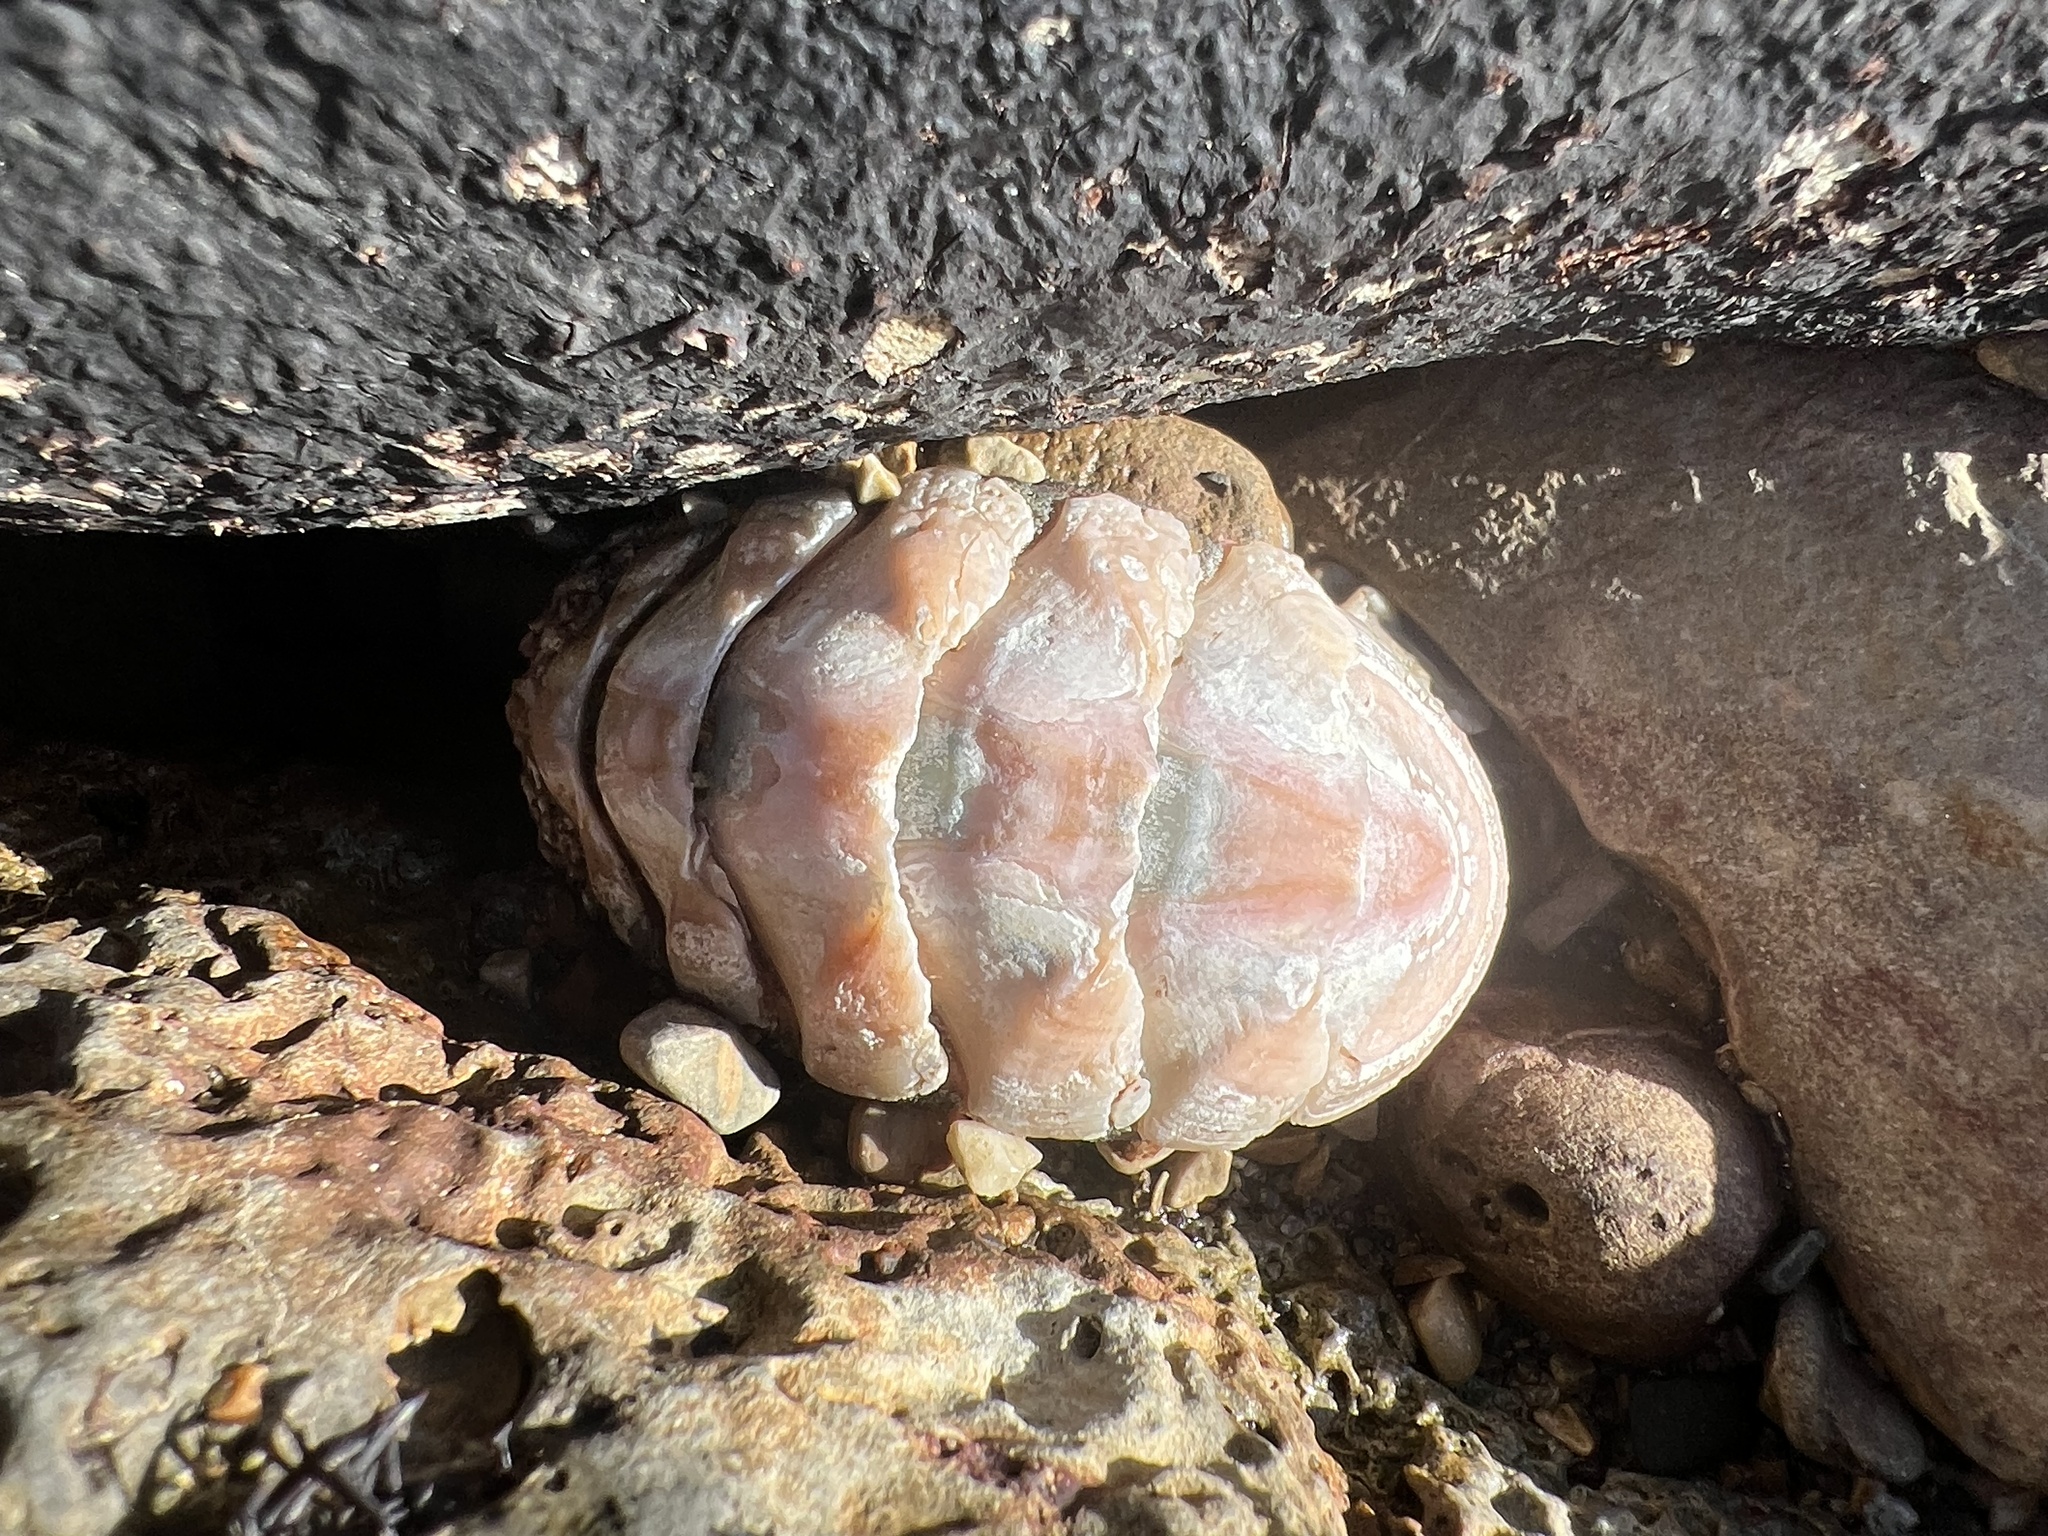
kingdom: Animalia
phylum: Mollusca
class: Polyplacophora
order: Chitonida
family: Ischnochitonidae
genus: Stenoplax
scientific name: Stenoplax conspicua
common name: Conspicuous chiton
